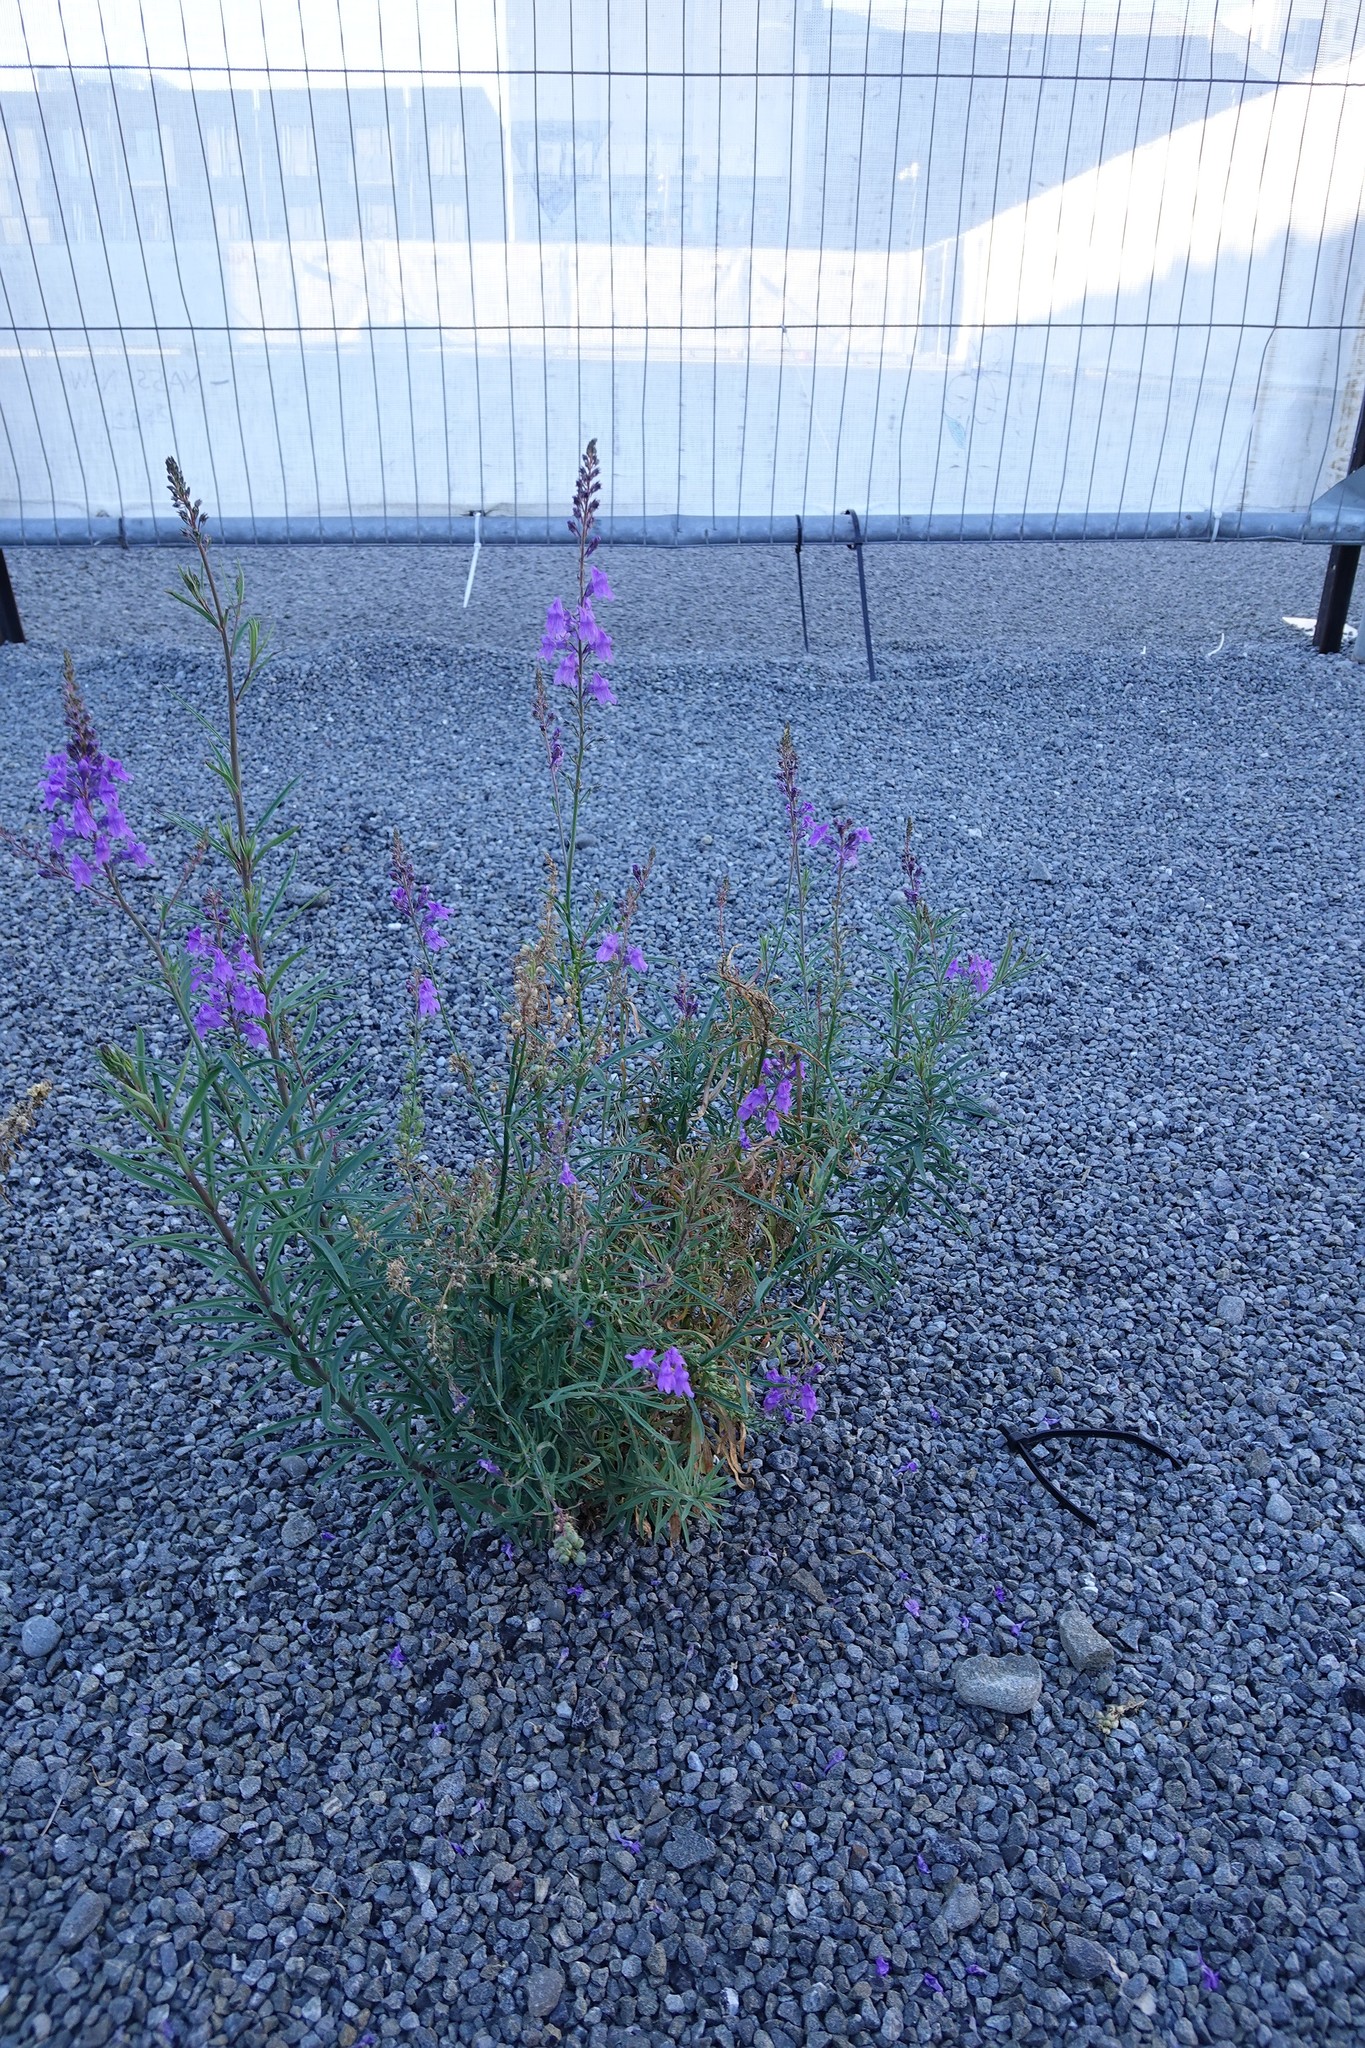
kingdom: Plantae
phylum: Tracheophyta
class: Magnoliopsida
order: Lamiales
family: Plantaginaceae
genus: Linaria
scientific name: Linaria purpurea
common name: Purple toadflax
